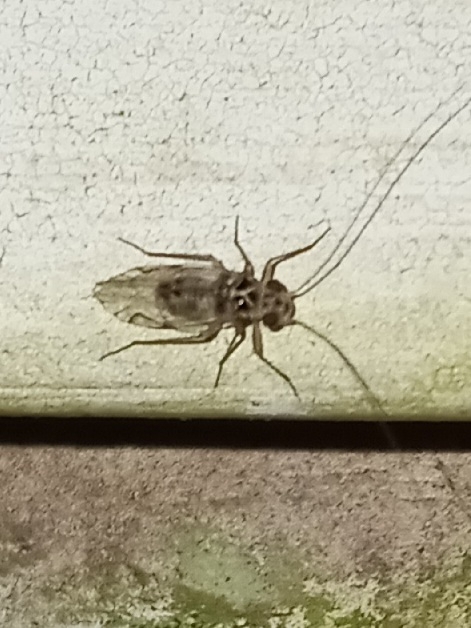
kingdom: Animalia
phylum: Arthropoda
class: Insecta
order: Psocodea
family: Psocidae
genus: Metylophorus
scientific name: Metylophorus purus
